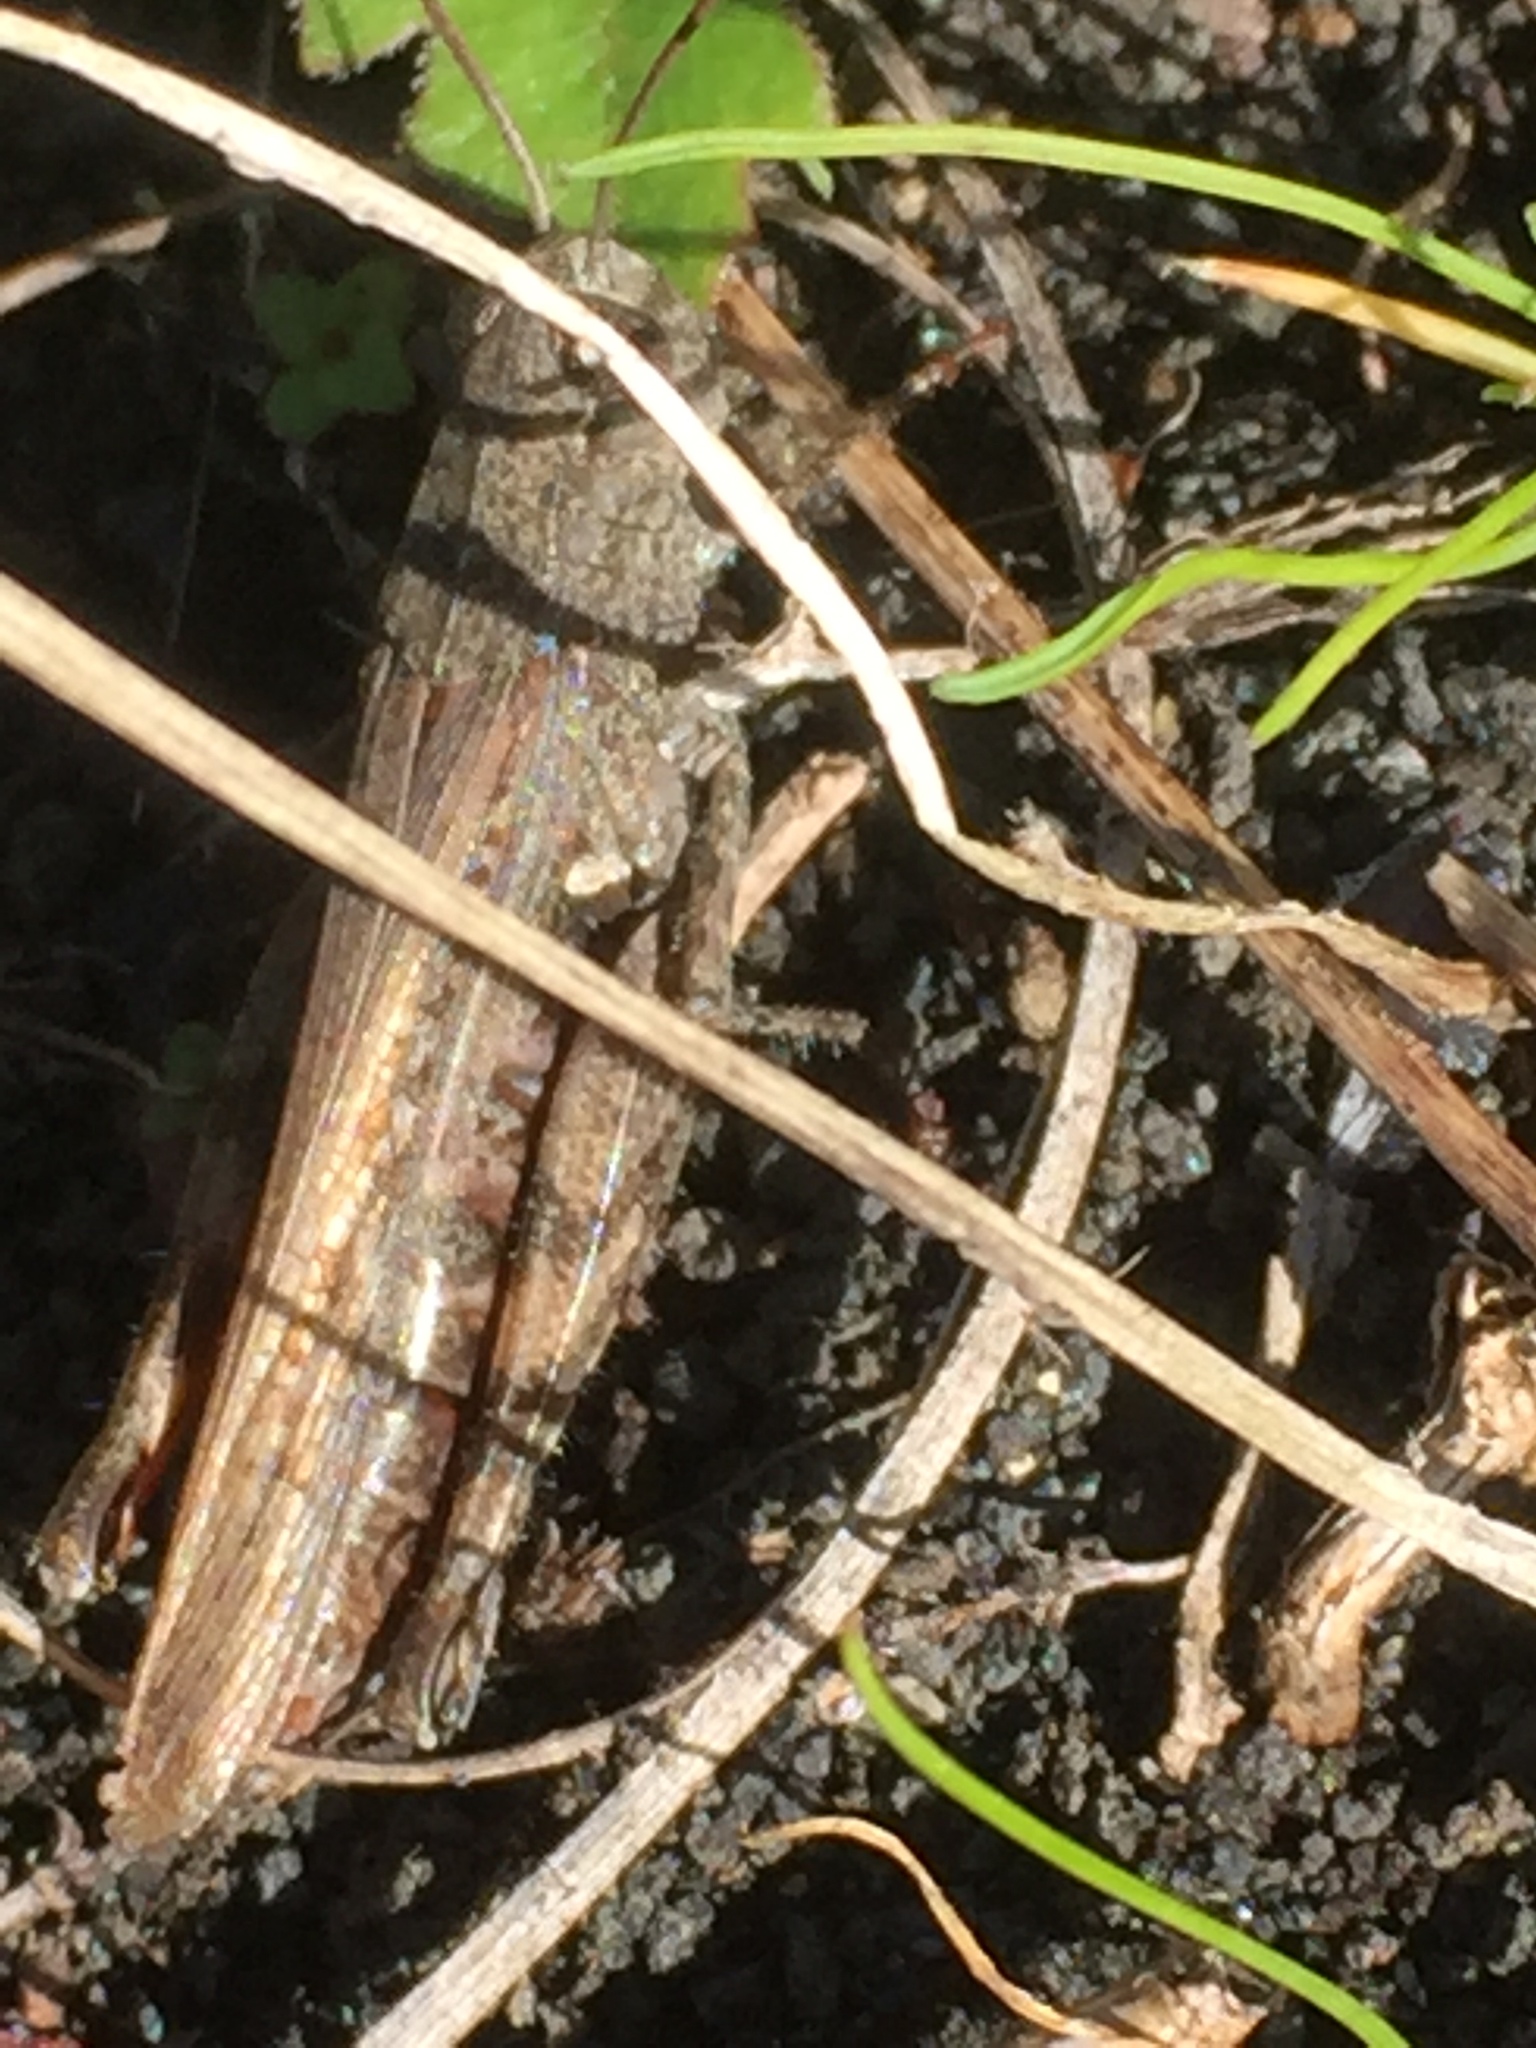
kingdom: Animalia
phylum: Arthropoda
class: Insecta
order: Orthoptera
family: Acrididae
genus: Calliptamus
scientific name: Calliptamus plebeius
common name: Canarian pincer grasshopper
